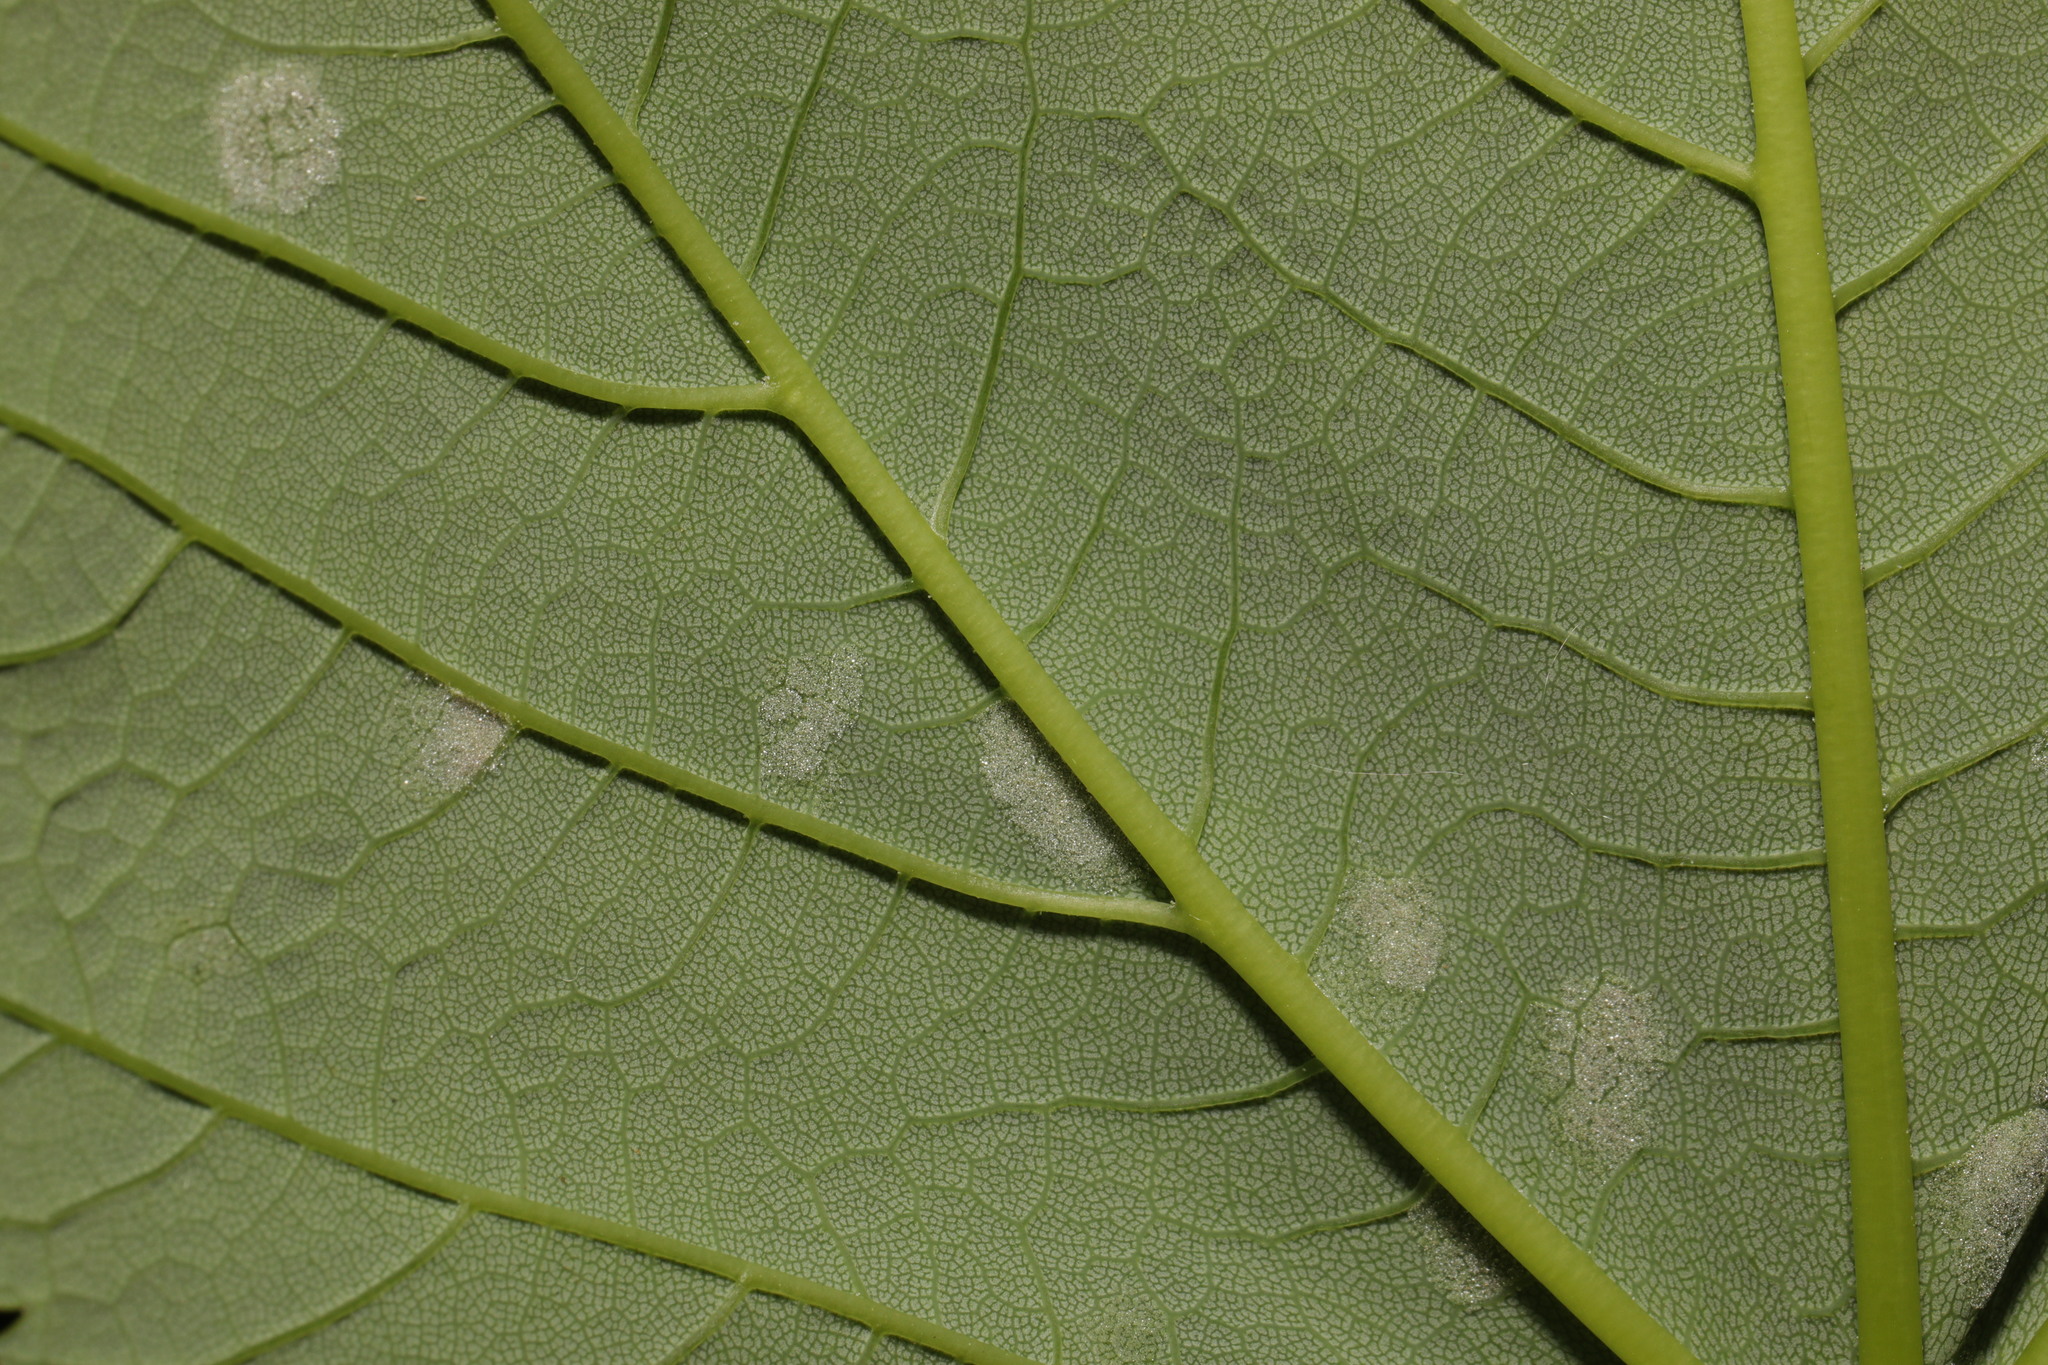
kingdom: Animalia
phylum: Arthropoda
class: Arachnida
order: Trombidiformes
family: Eriophyidae
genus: Aceria
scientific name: Aceria pseudoplatani
